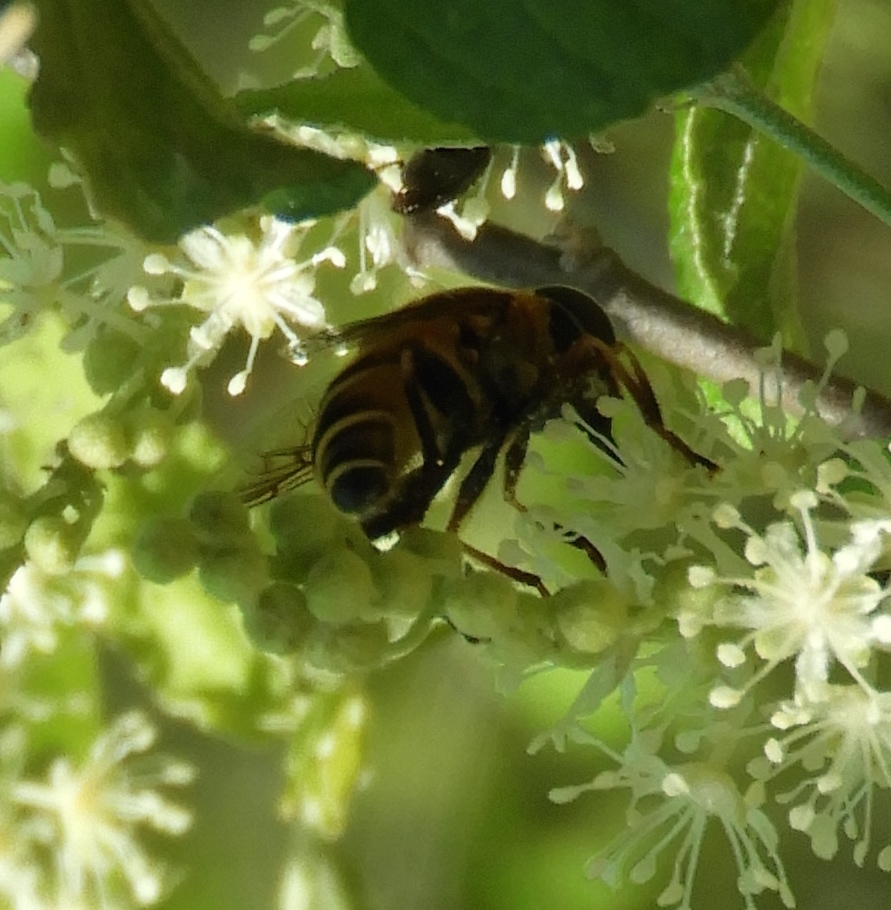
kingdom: Animalia
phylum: Arthropoda
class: Insecta
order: Diptera
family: Syrphidae
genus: Palpada
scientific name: Palpada
